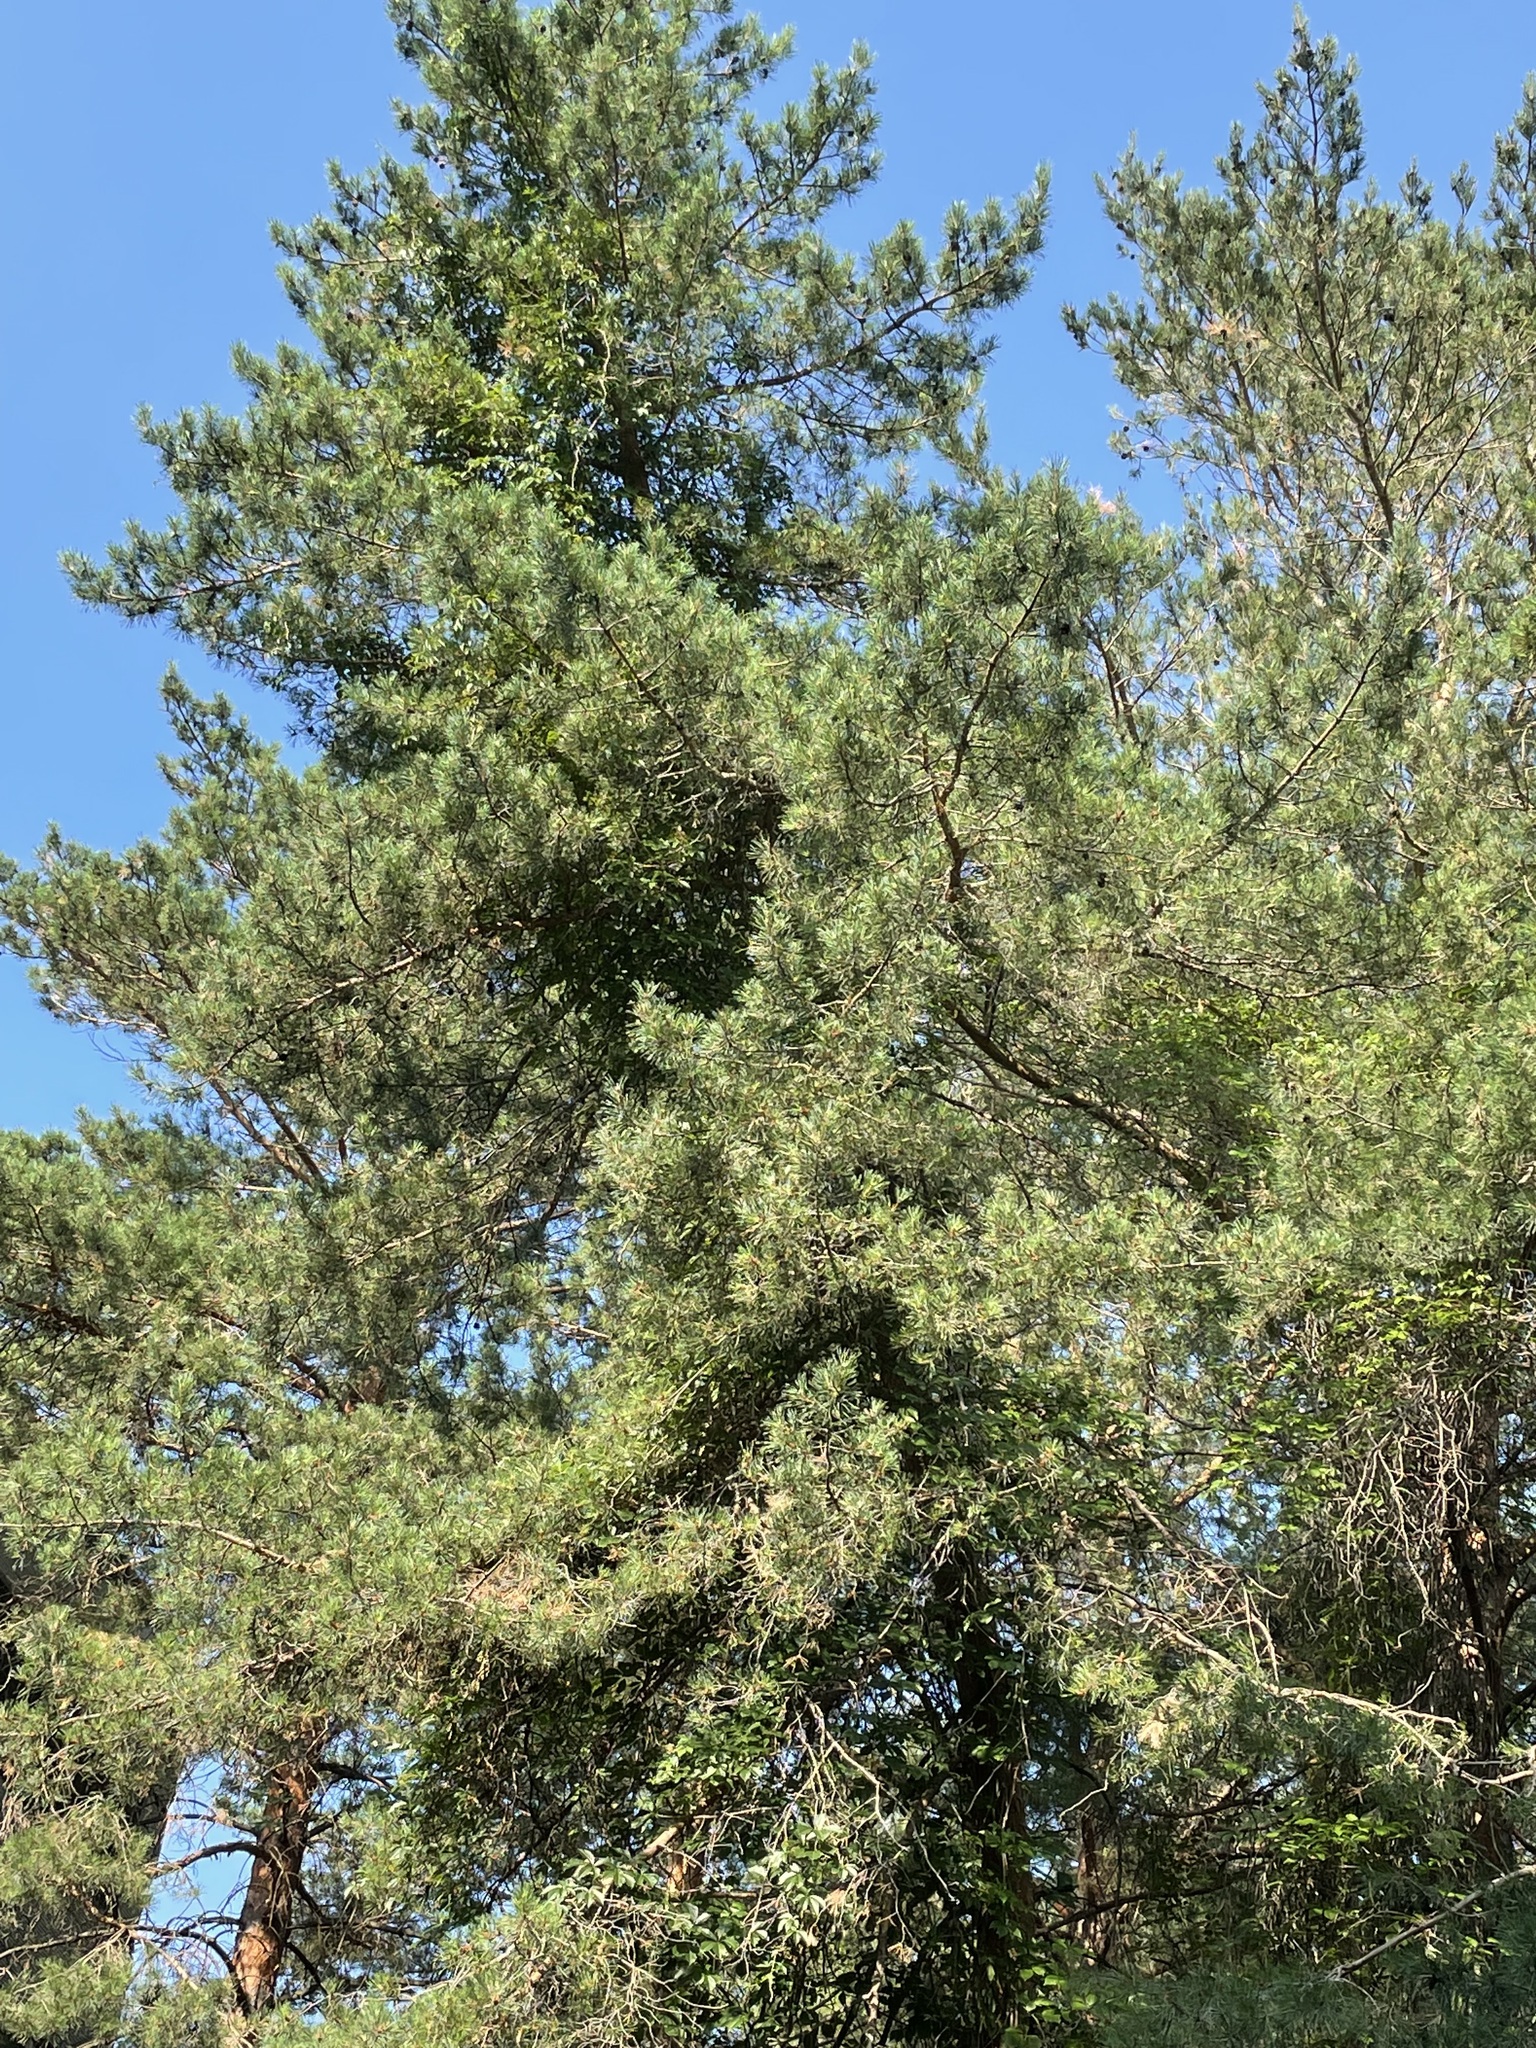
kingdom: Plantae
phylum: Tracheophyta
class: Pinopsida
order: Pinales
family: Pinaceae
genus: Pinus
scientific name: Pinus sylvestris
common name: Scots pine
